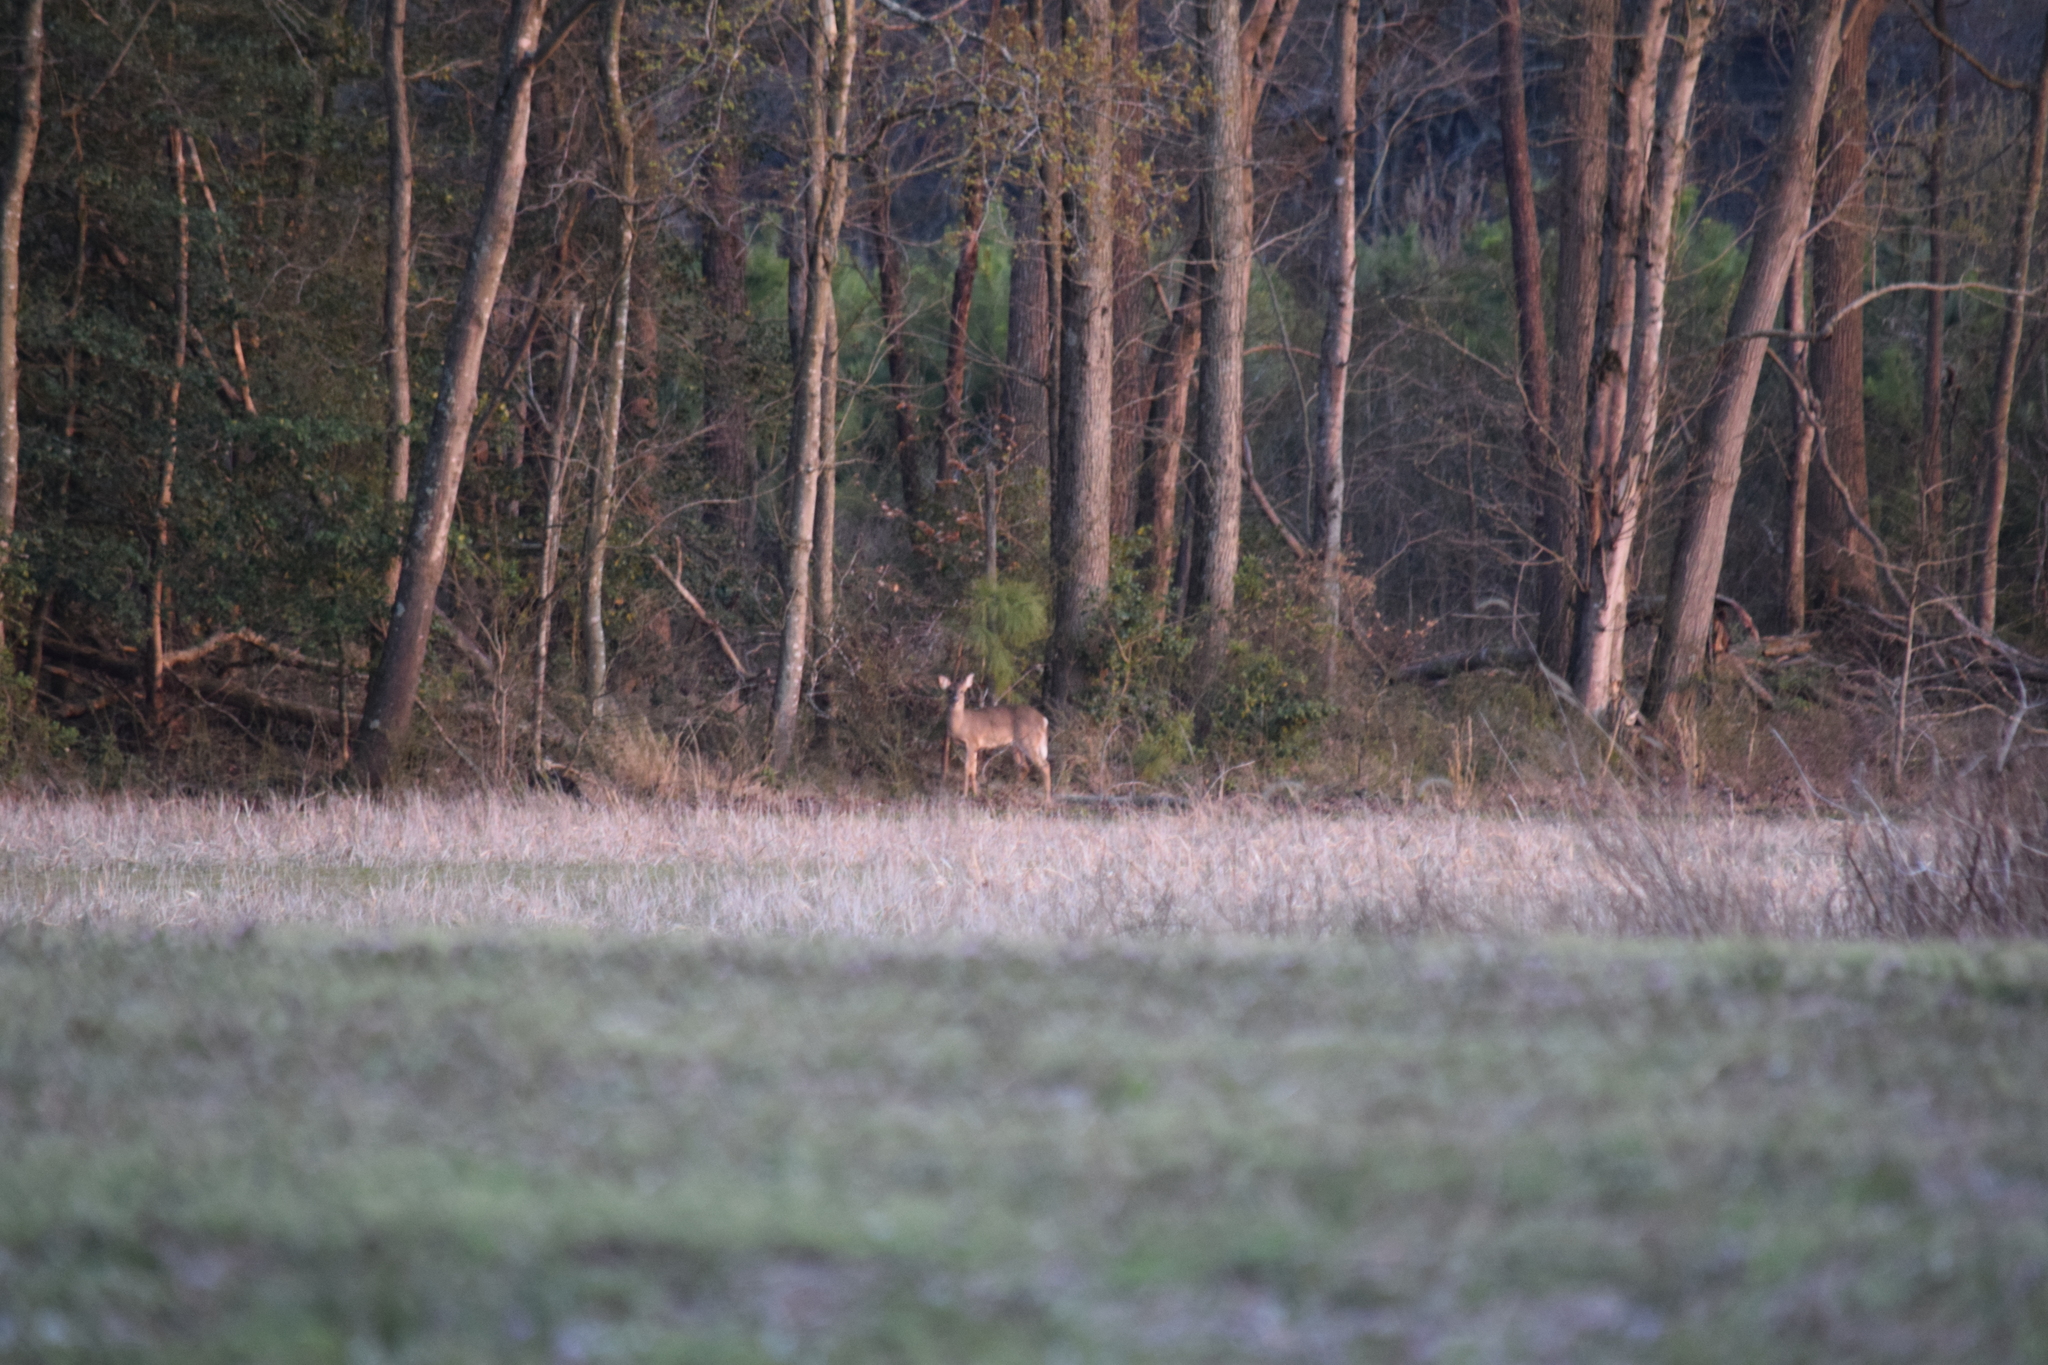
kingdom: Animalia
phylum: Chordata
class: Mammalia
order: Artiodactyla
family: Cervidae
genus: Odocoileus
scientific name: Odocoileus virginianus
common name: White-tailed deer
